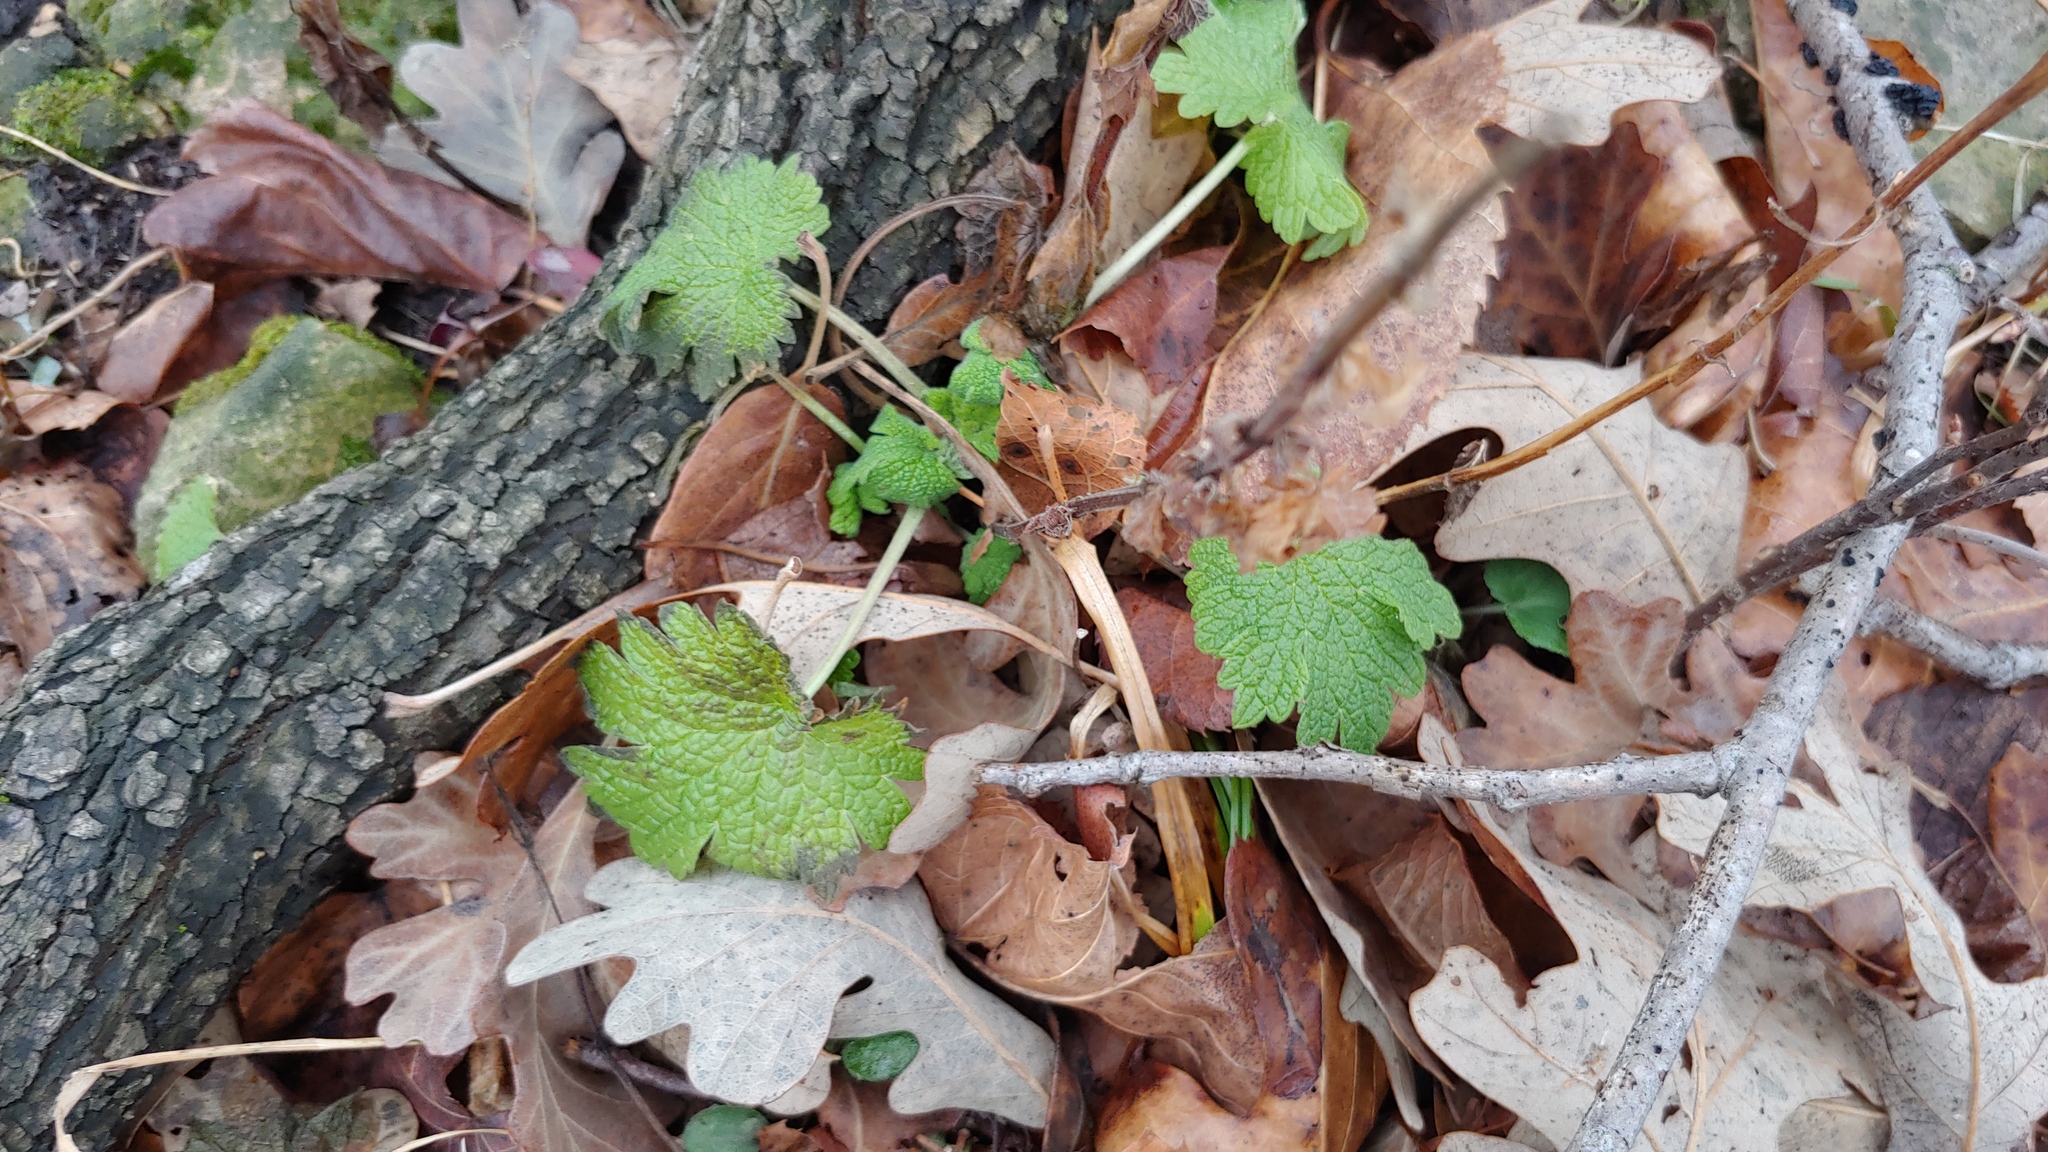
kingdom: Plantae
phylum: Tracheophyta
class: Magnoliopsida
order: Lamiales
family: Lamiaceae
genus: Leonurus
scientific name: Leonurus cardiaca
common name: Motherwort
